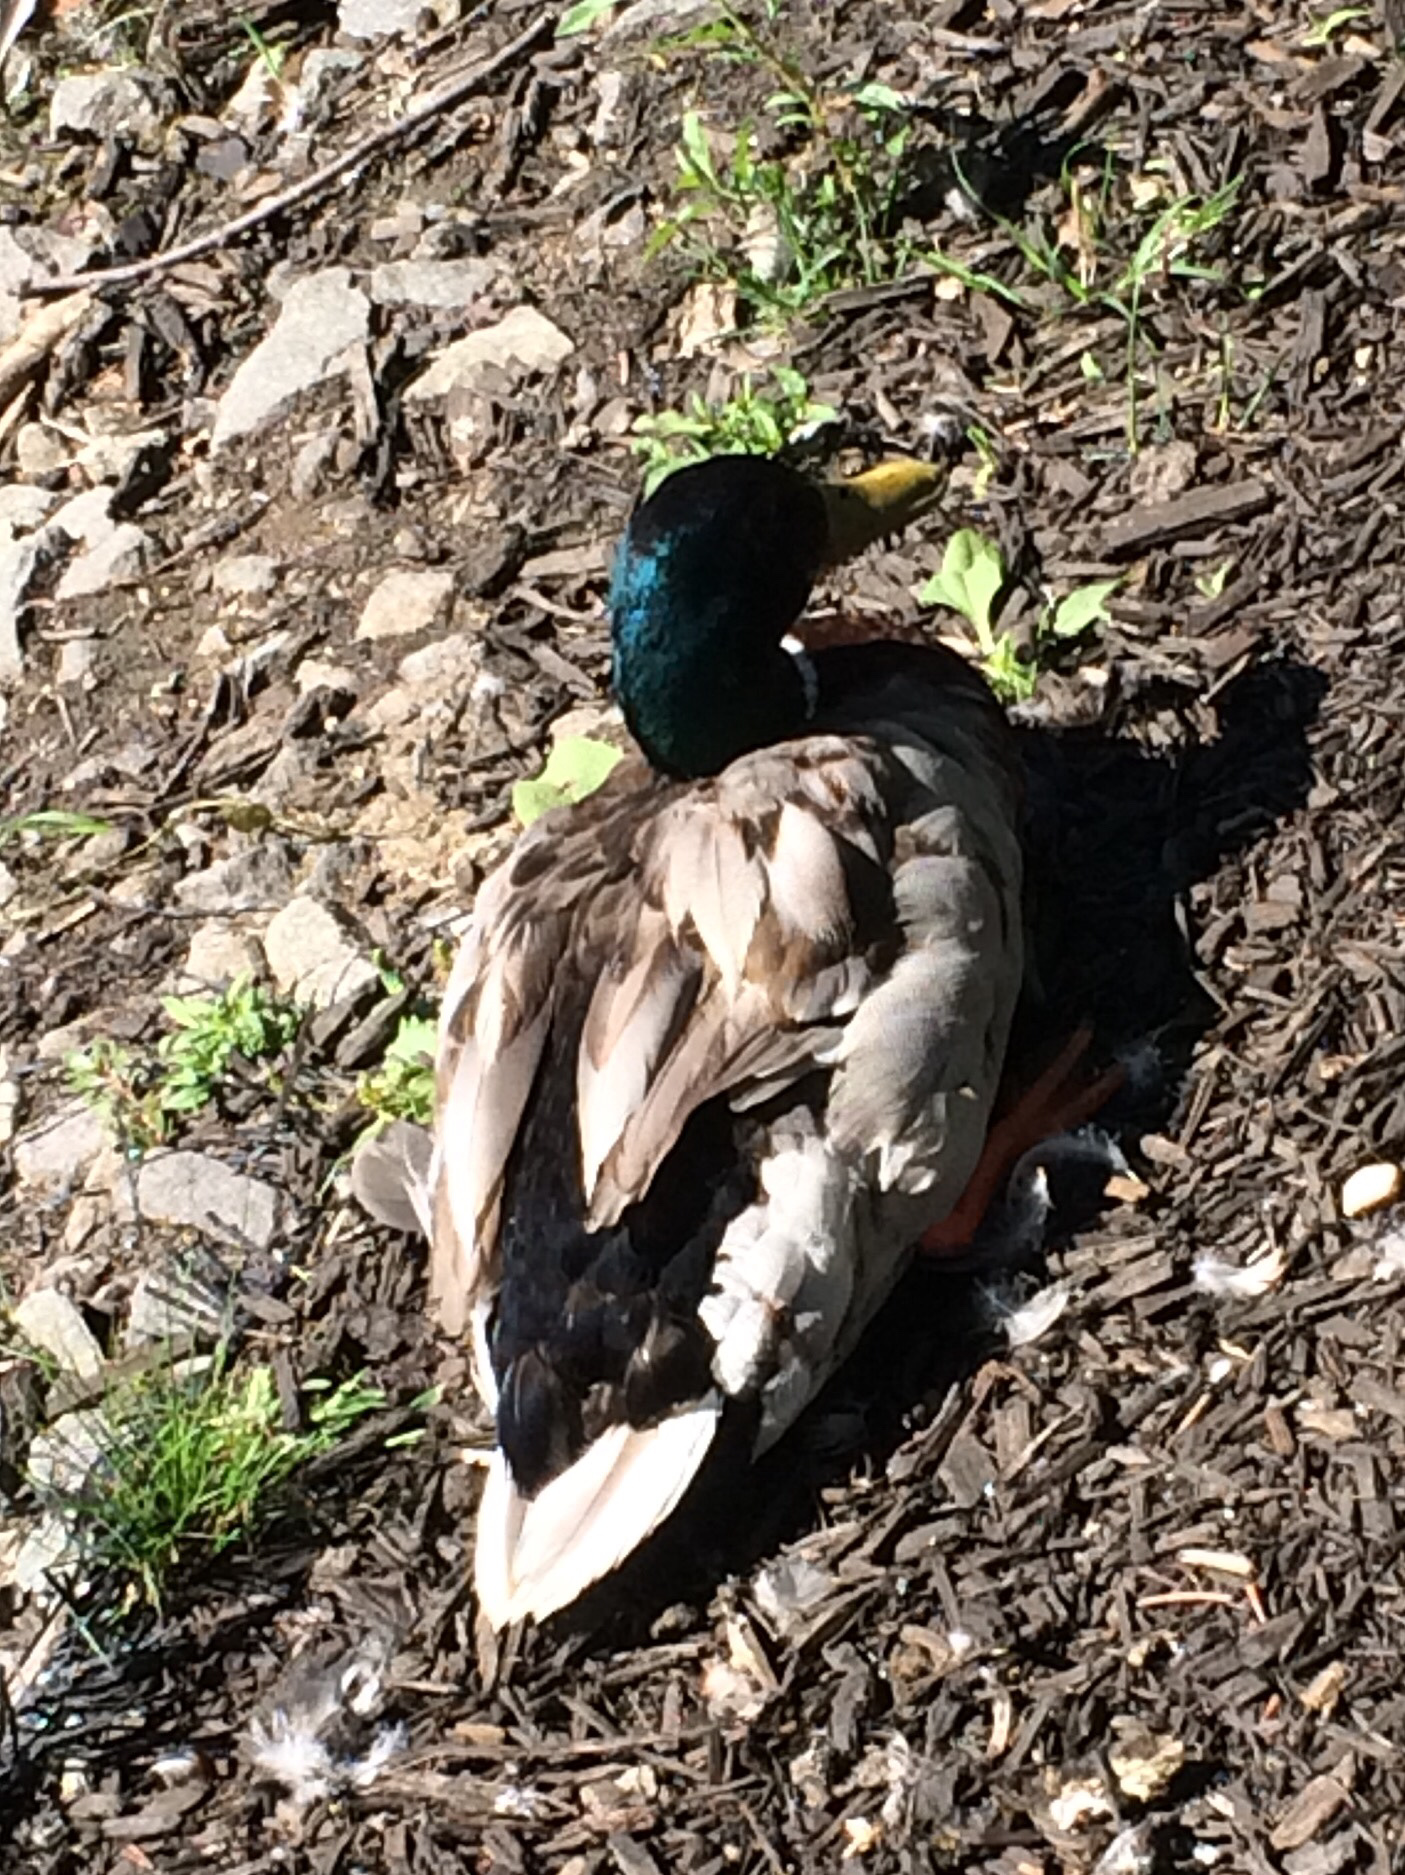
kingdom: Animalia
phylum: Chordata
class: Aves
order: Anseriformes
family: Anatidae
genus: Anas
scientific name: Anas platyrhynchos
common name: Mallard
